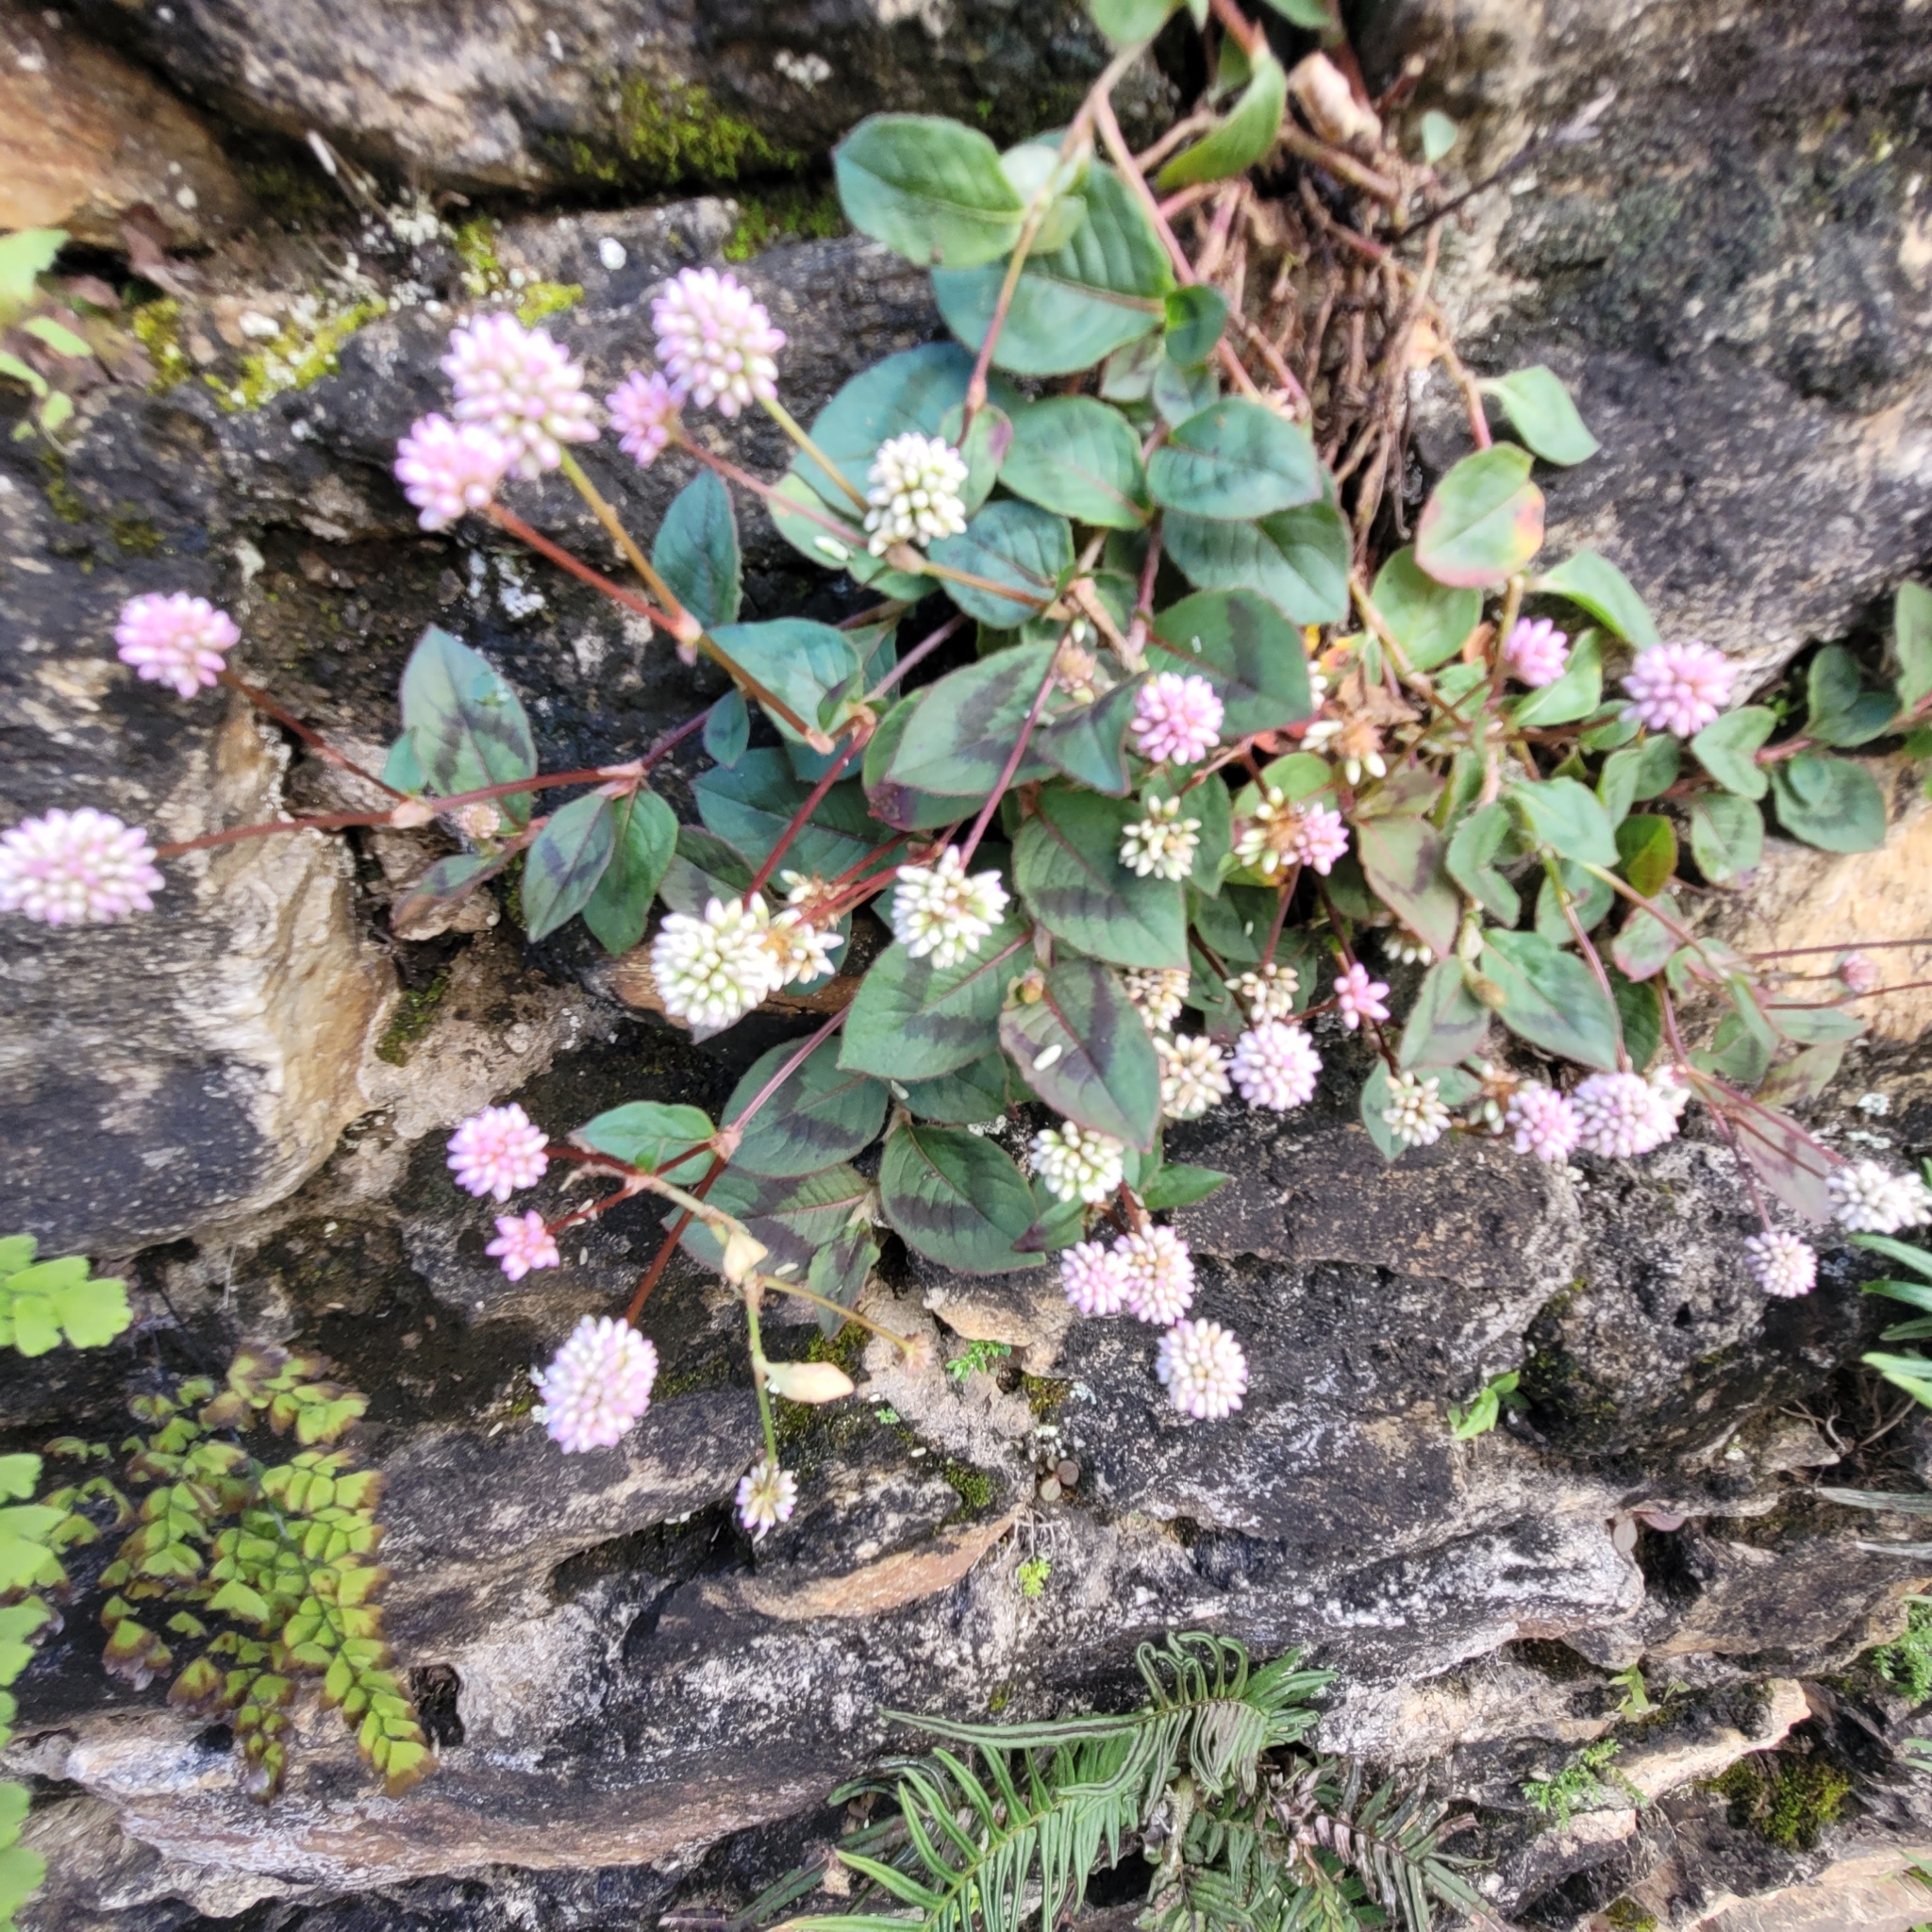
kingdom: Plantae
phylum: Tracheophyta
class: Magnoliopsida
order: Caryophyllales
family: Polygonaceae
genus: Persicaria
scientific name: Persicaria capitata
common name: Pinkhead smartweed
